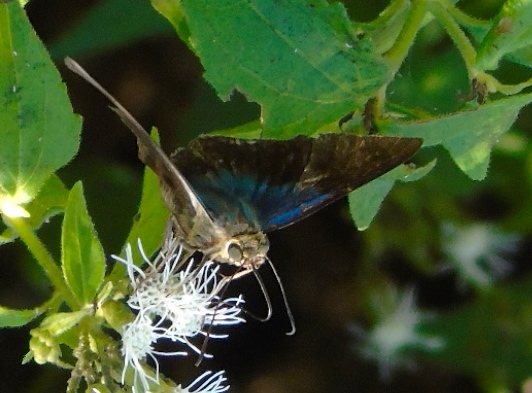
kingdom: Animalia
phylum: Arthropoda
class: Insecta
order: Lepidoptera
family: Hesperiidae
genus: Astraptes
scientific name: Astraptes fulgerator
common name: Two-barred flasher
